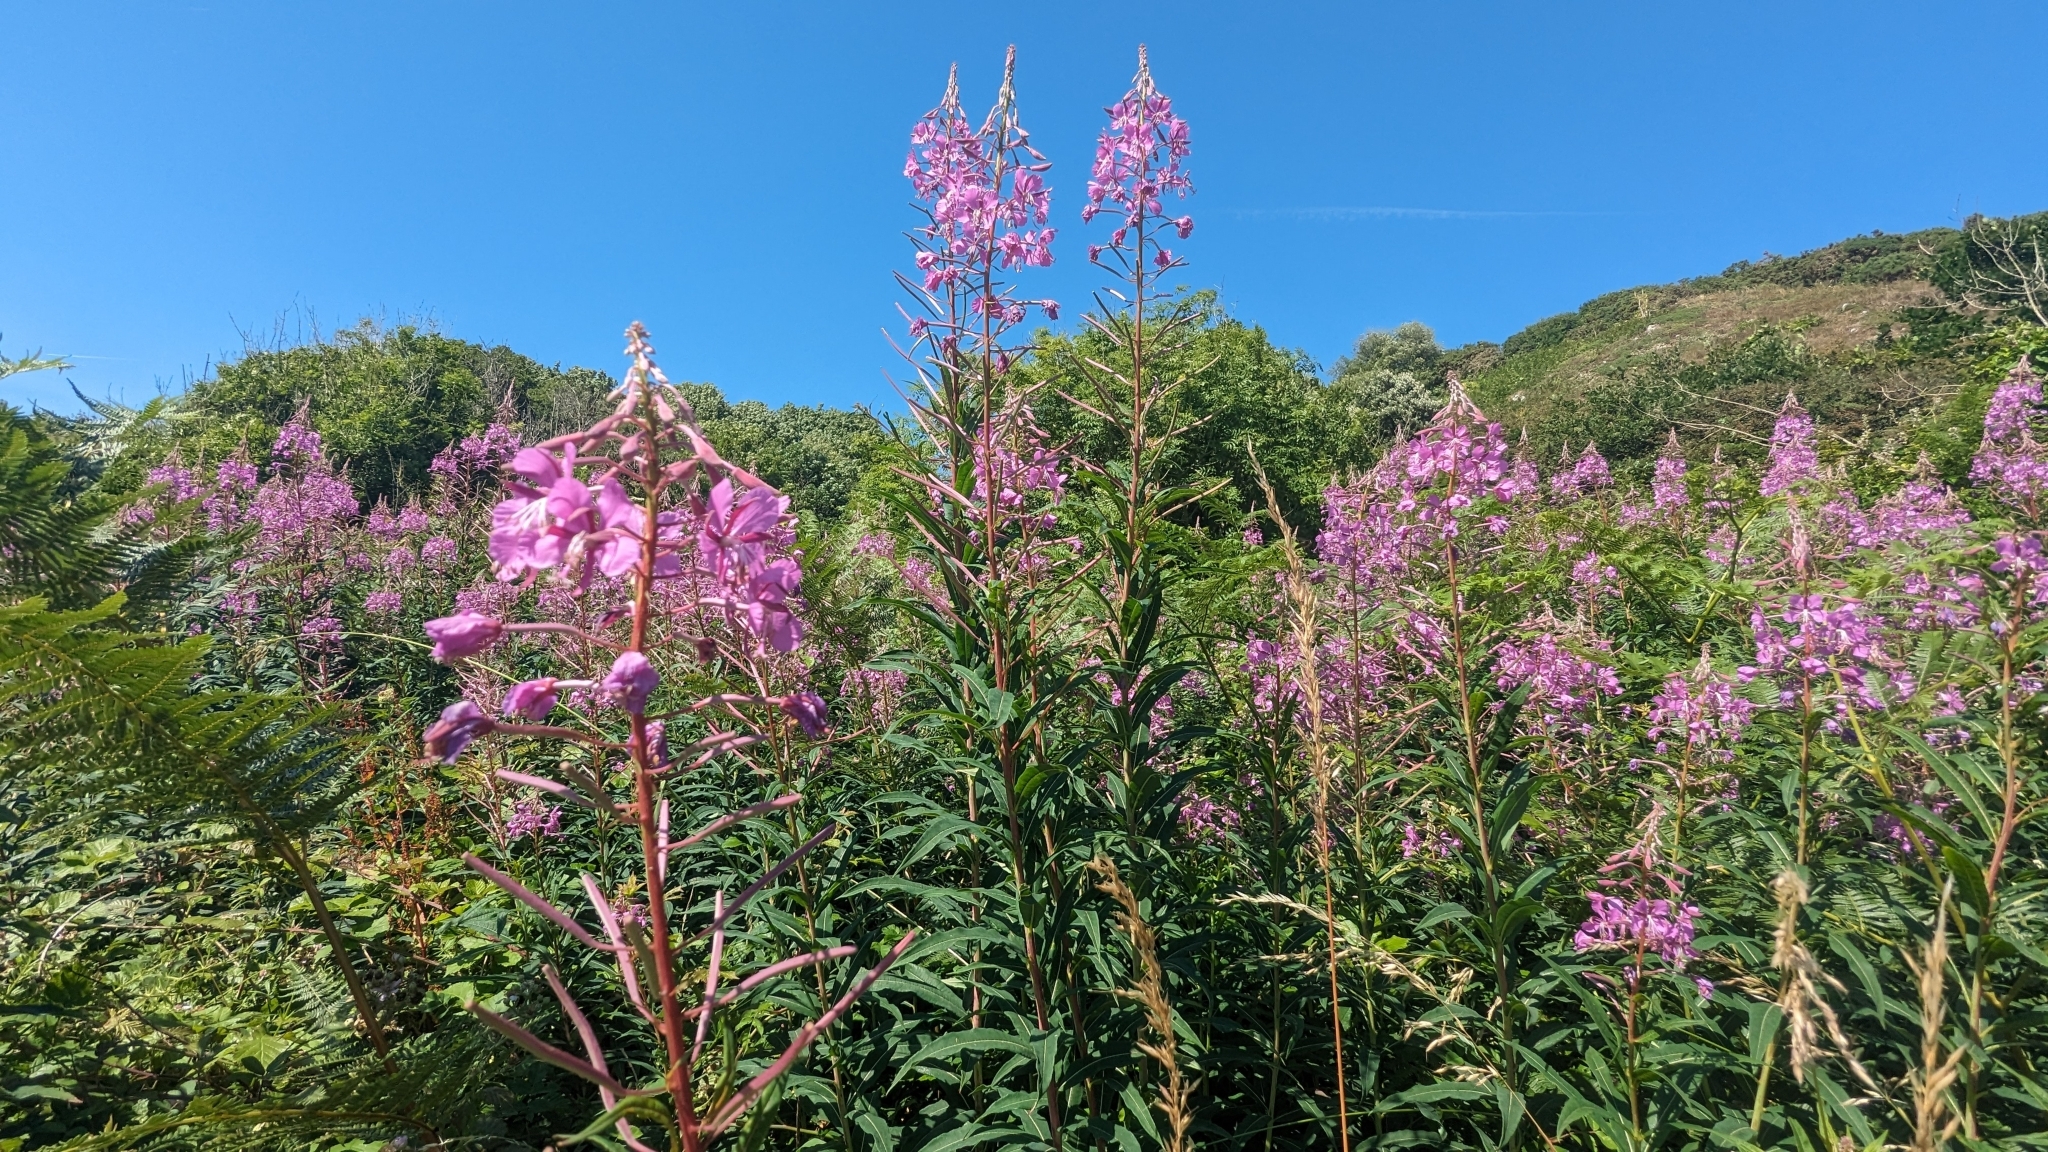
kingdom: Plantae
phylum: Tracheophyta
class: Magnoliopsida
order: Myrtales
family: Onagraceae
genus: Chamaenerion
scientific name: Chamaenerion angustifolium
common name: Fireweed
